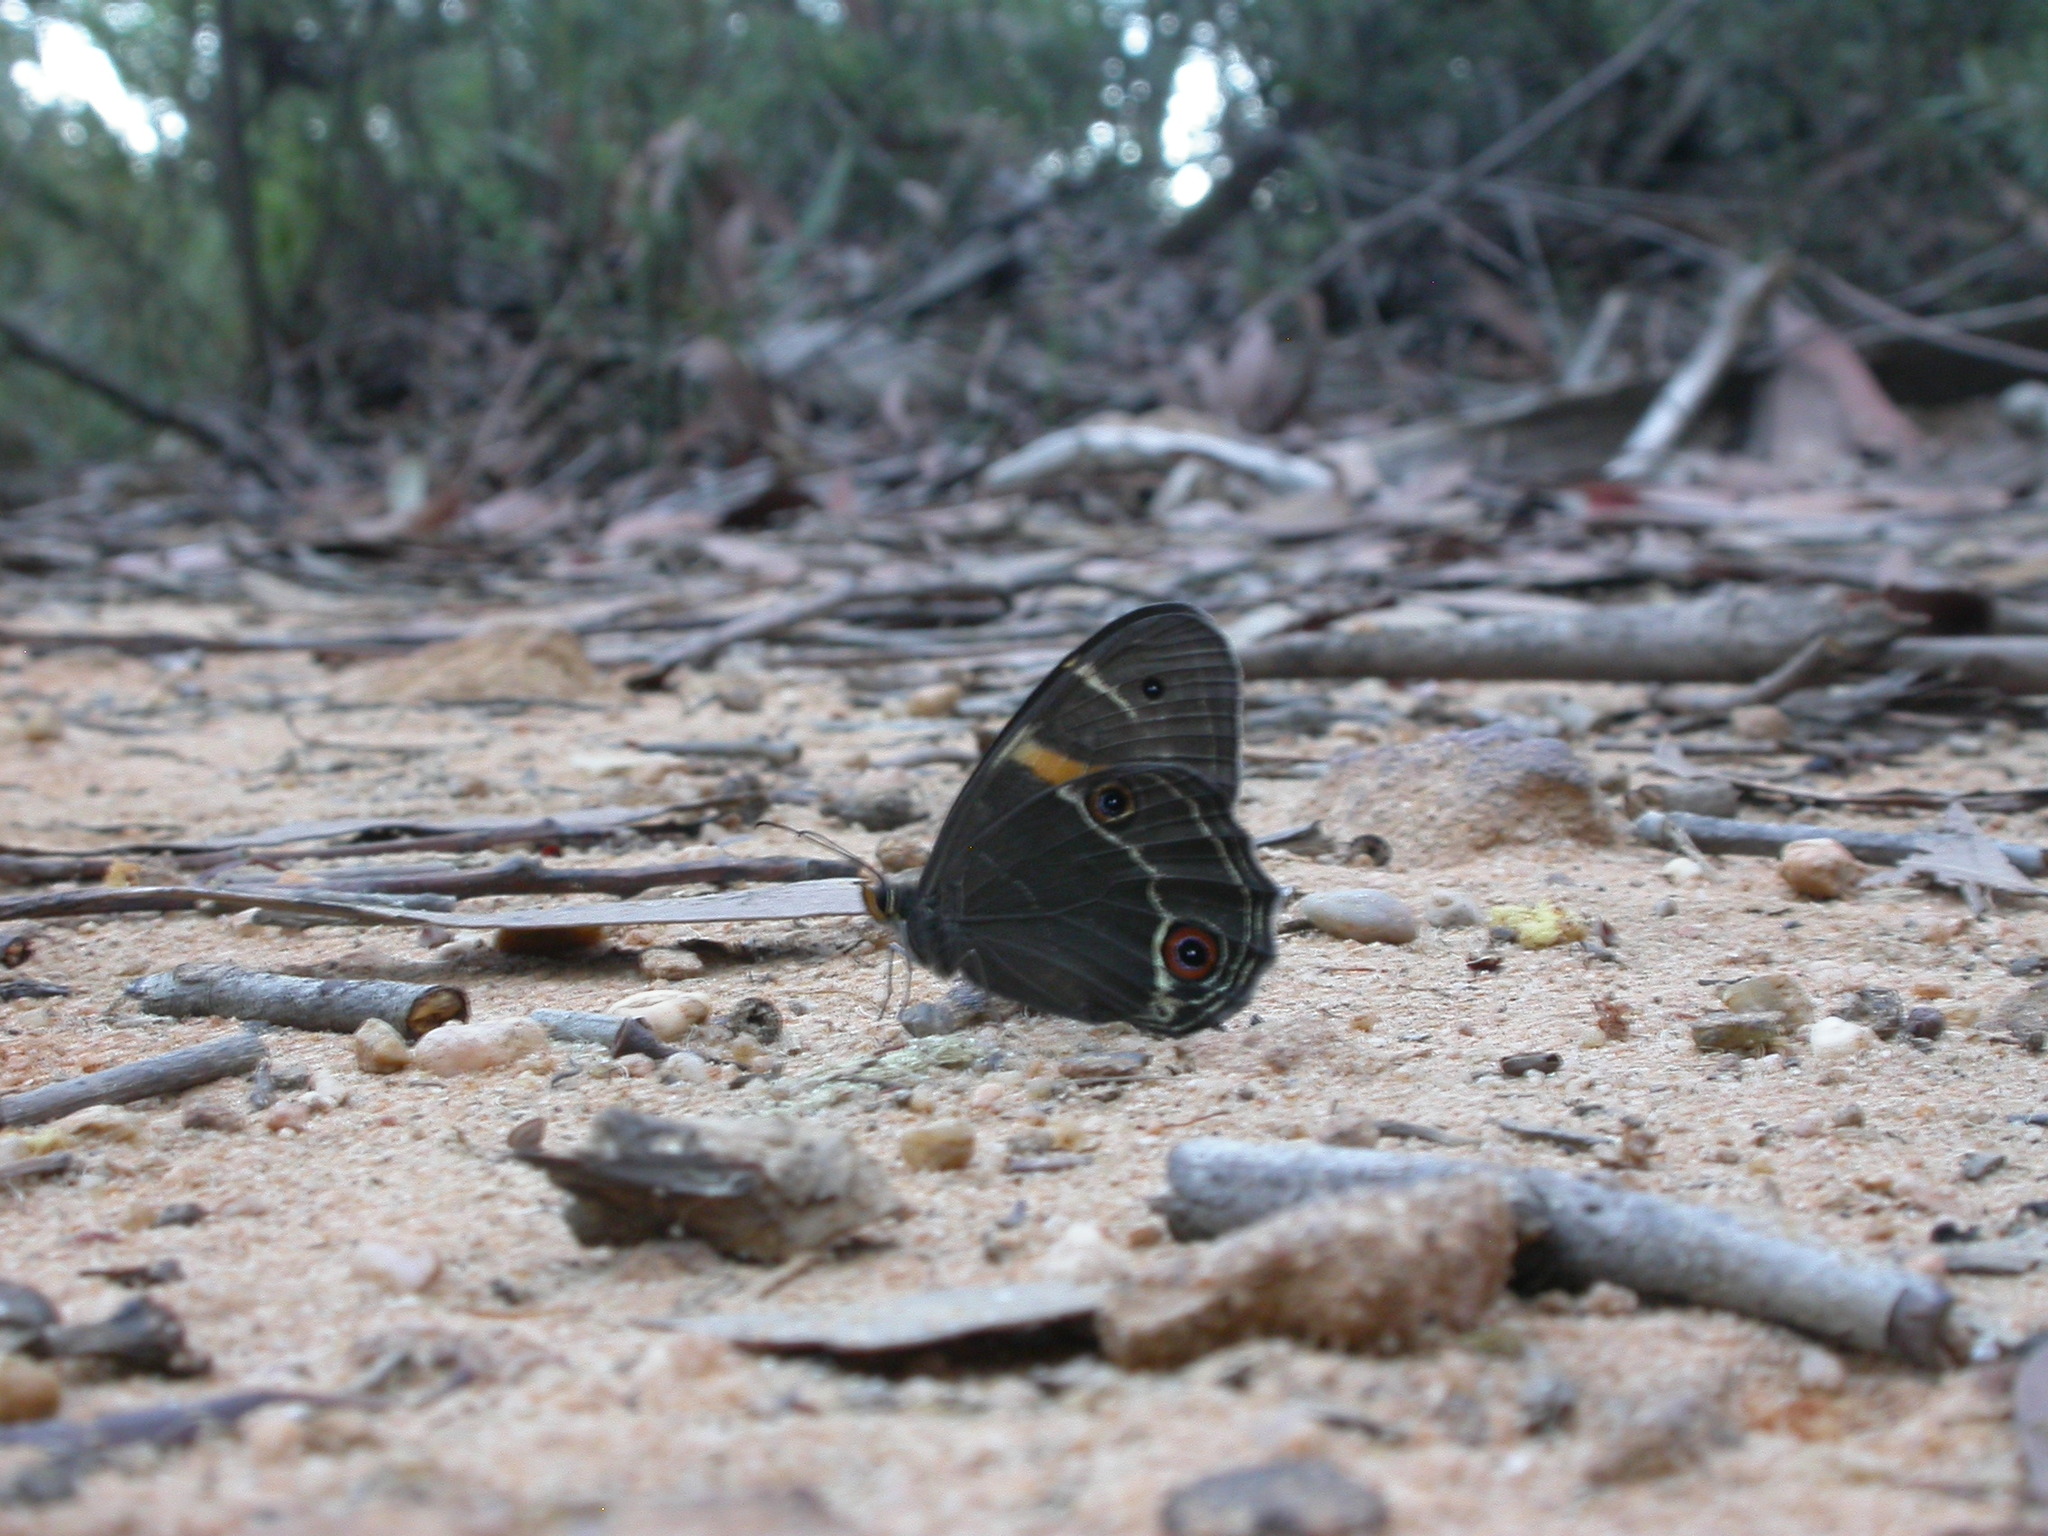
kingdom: Animalia
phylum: Arthropoda
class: Insecta
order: Lepidoptera
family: Nymphalidae
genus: Tisiphone
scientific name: Tisiphone abeona
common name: Swordgrass brown
